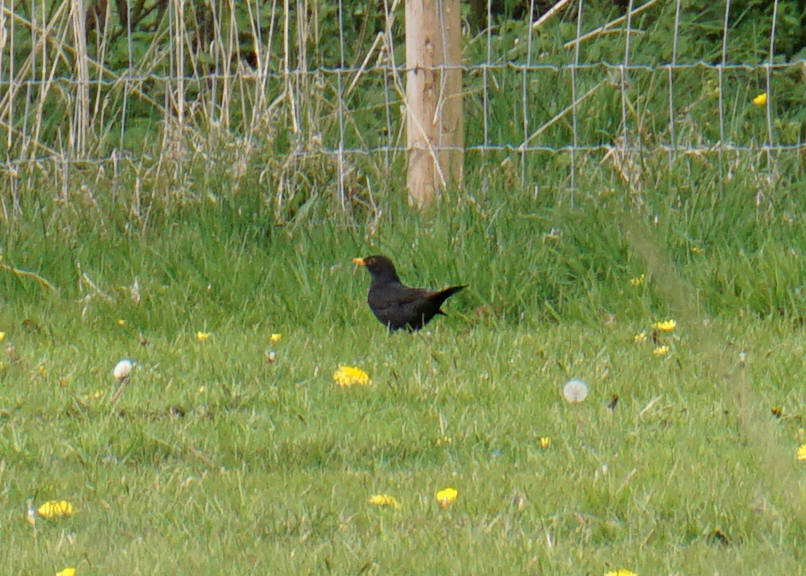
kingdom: Animalia
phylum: Chordata
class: Aves
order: Passeriformes
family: Turdidae
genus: Turdus
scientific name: Turdus merula
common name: Common blackbird
